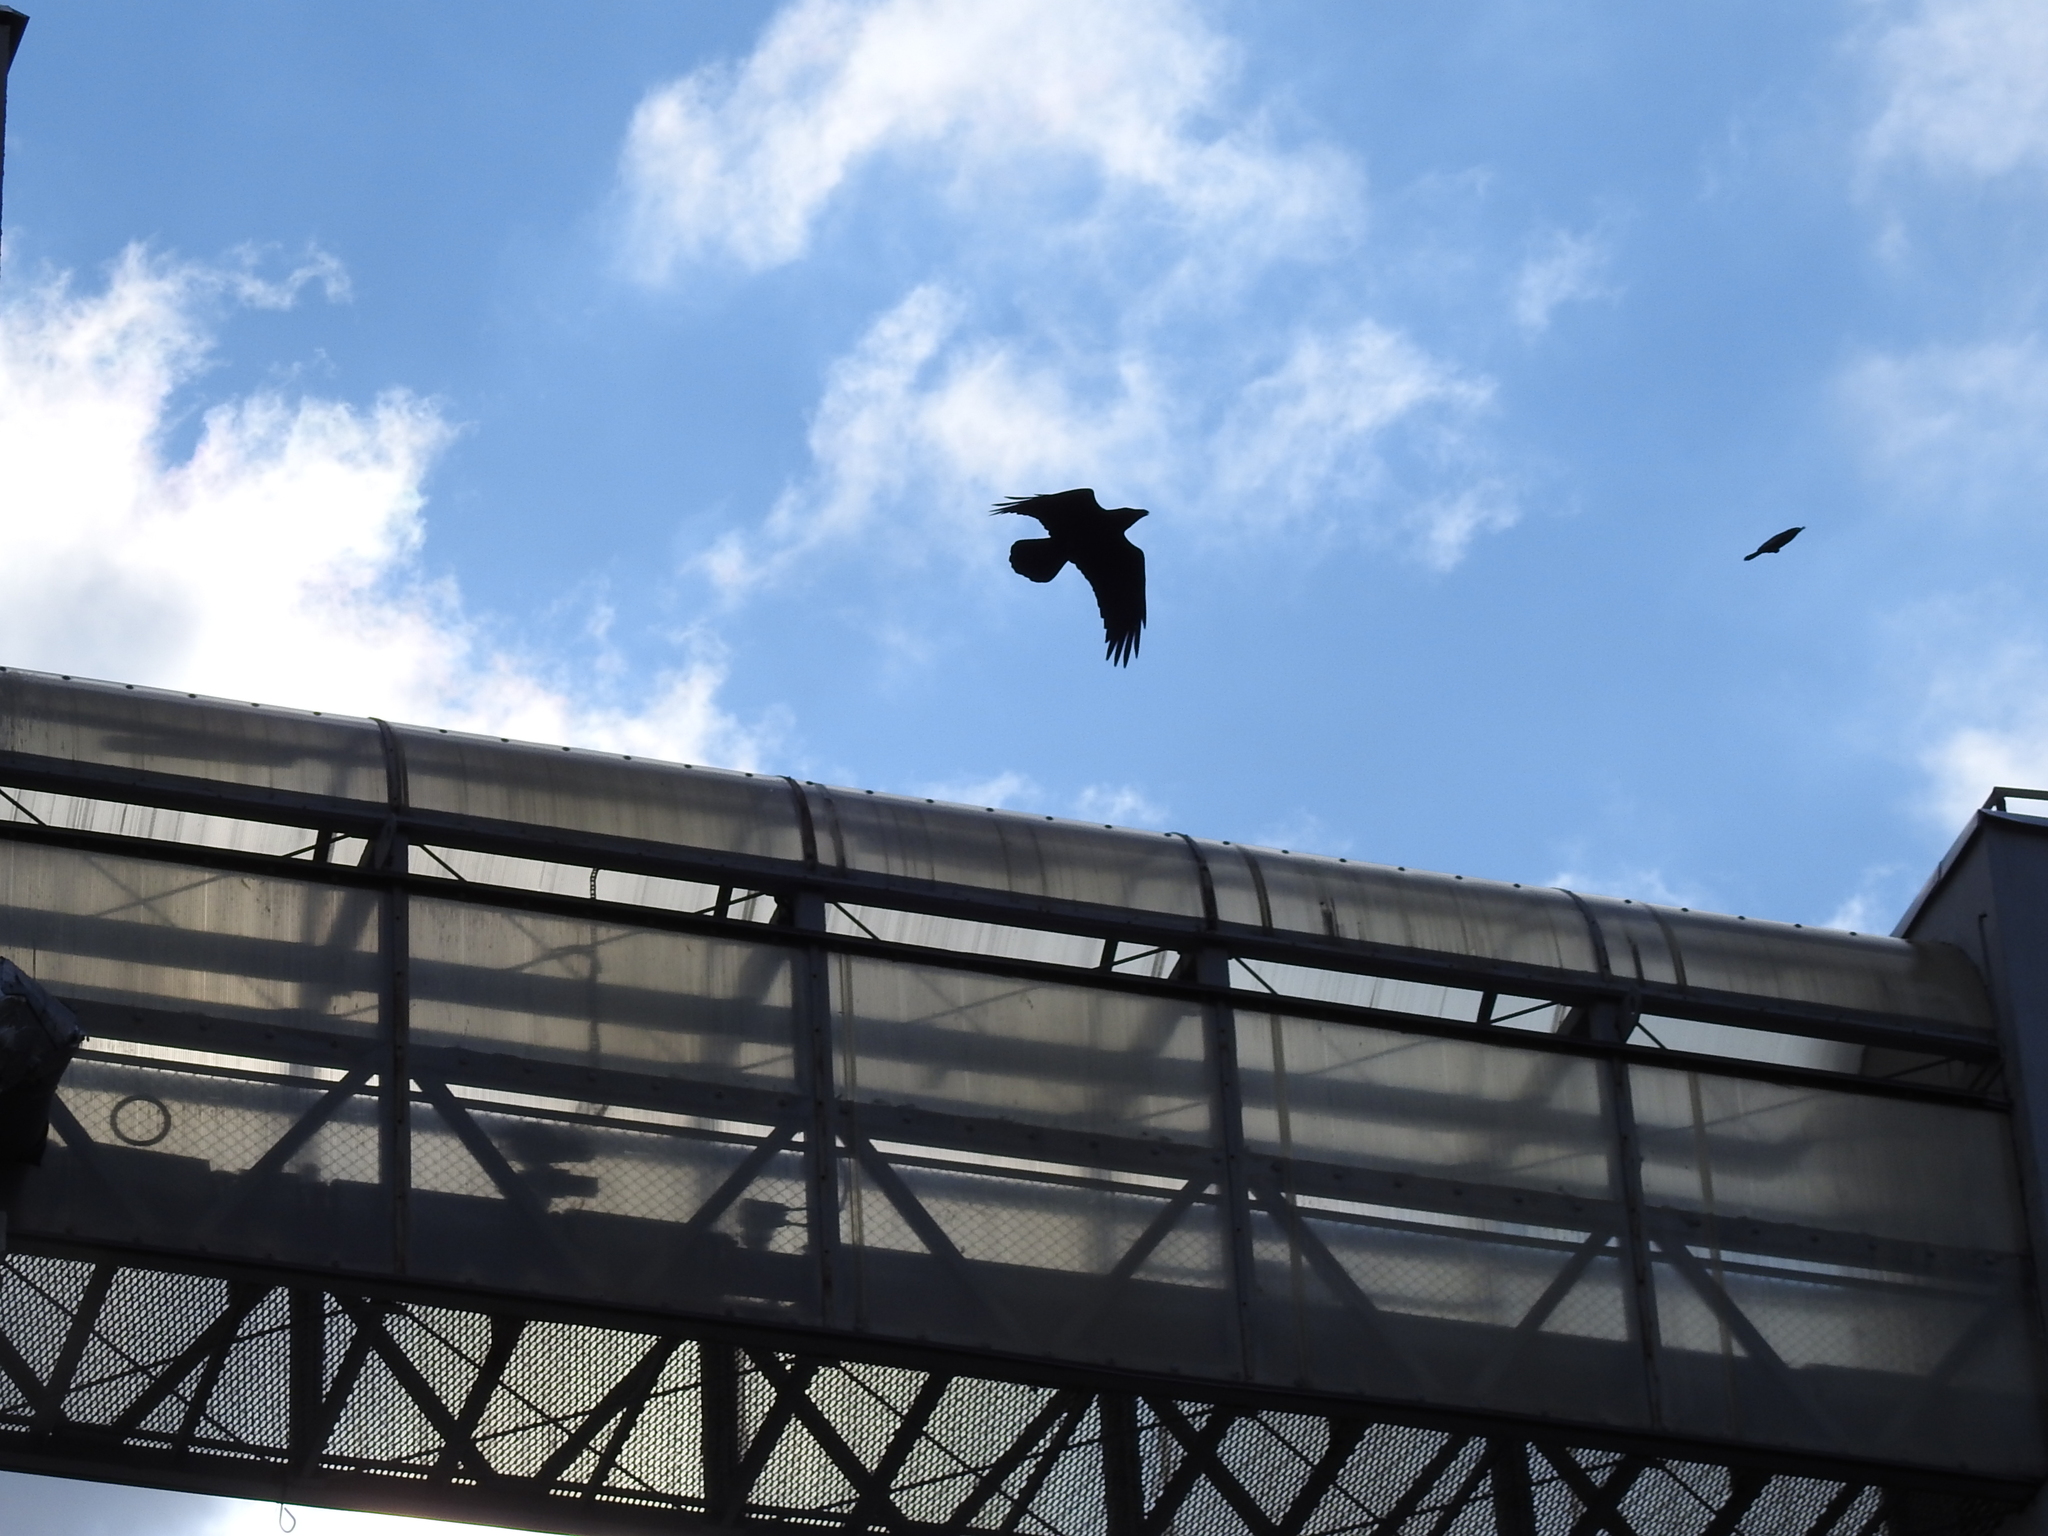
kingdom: Animalia
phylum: Chordata
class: Aves
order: Passeriformes
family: Corvidae
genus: Corvus
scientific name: Corvus corax
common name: Common raven
